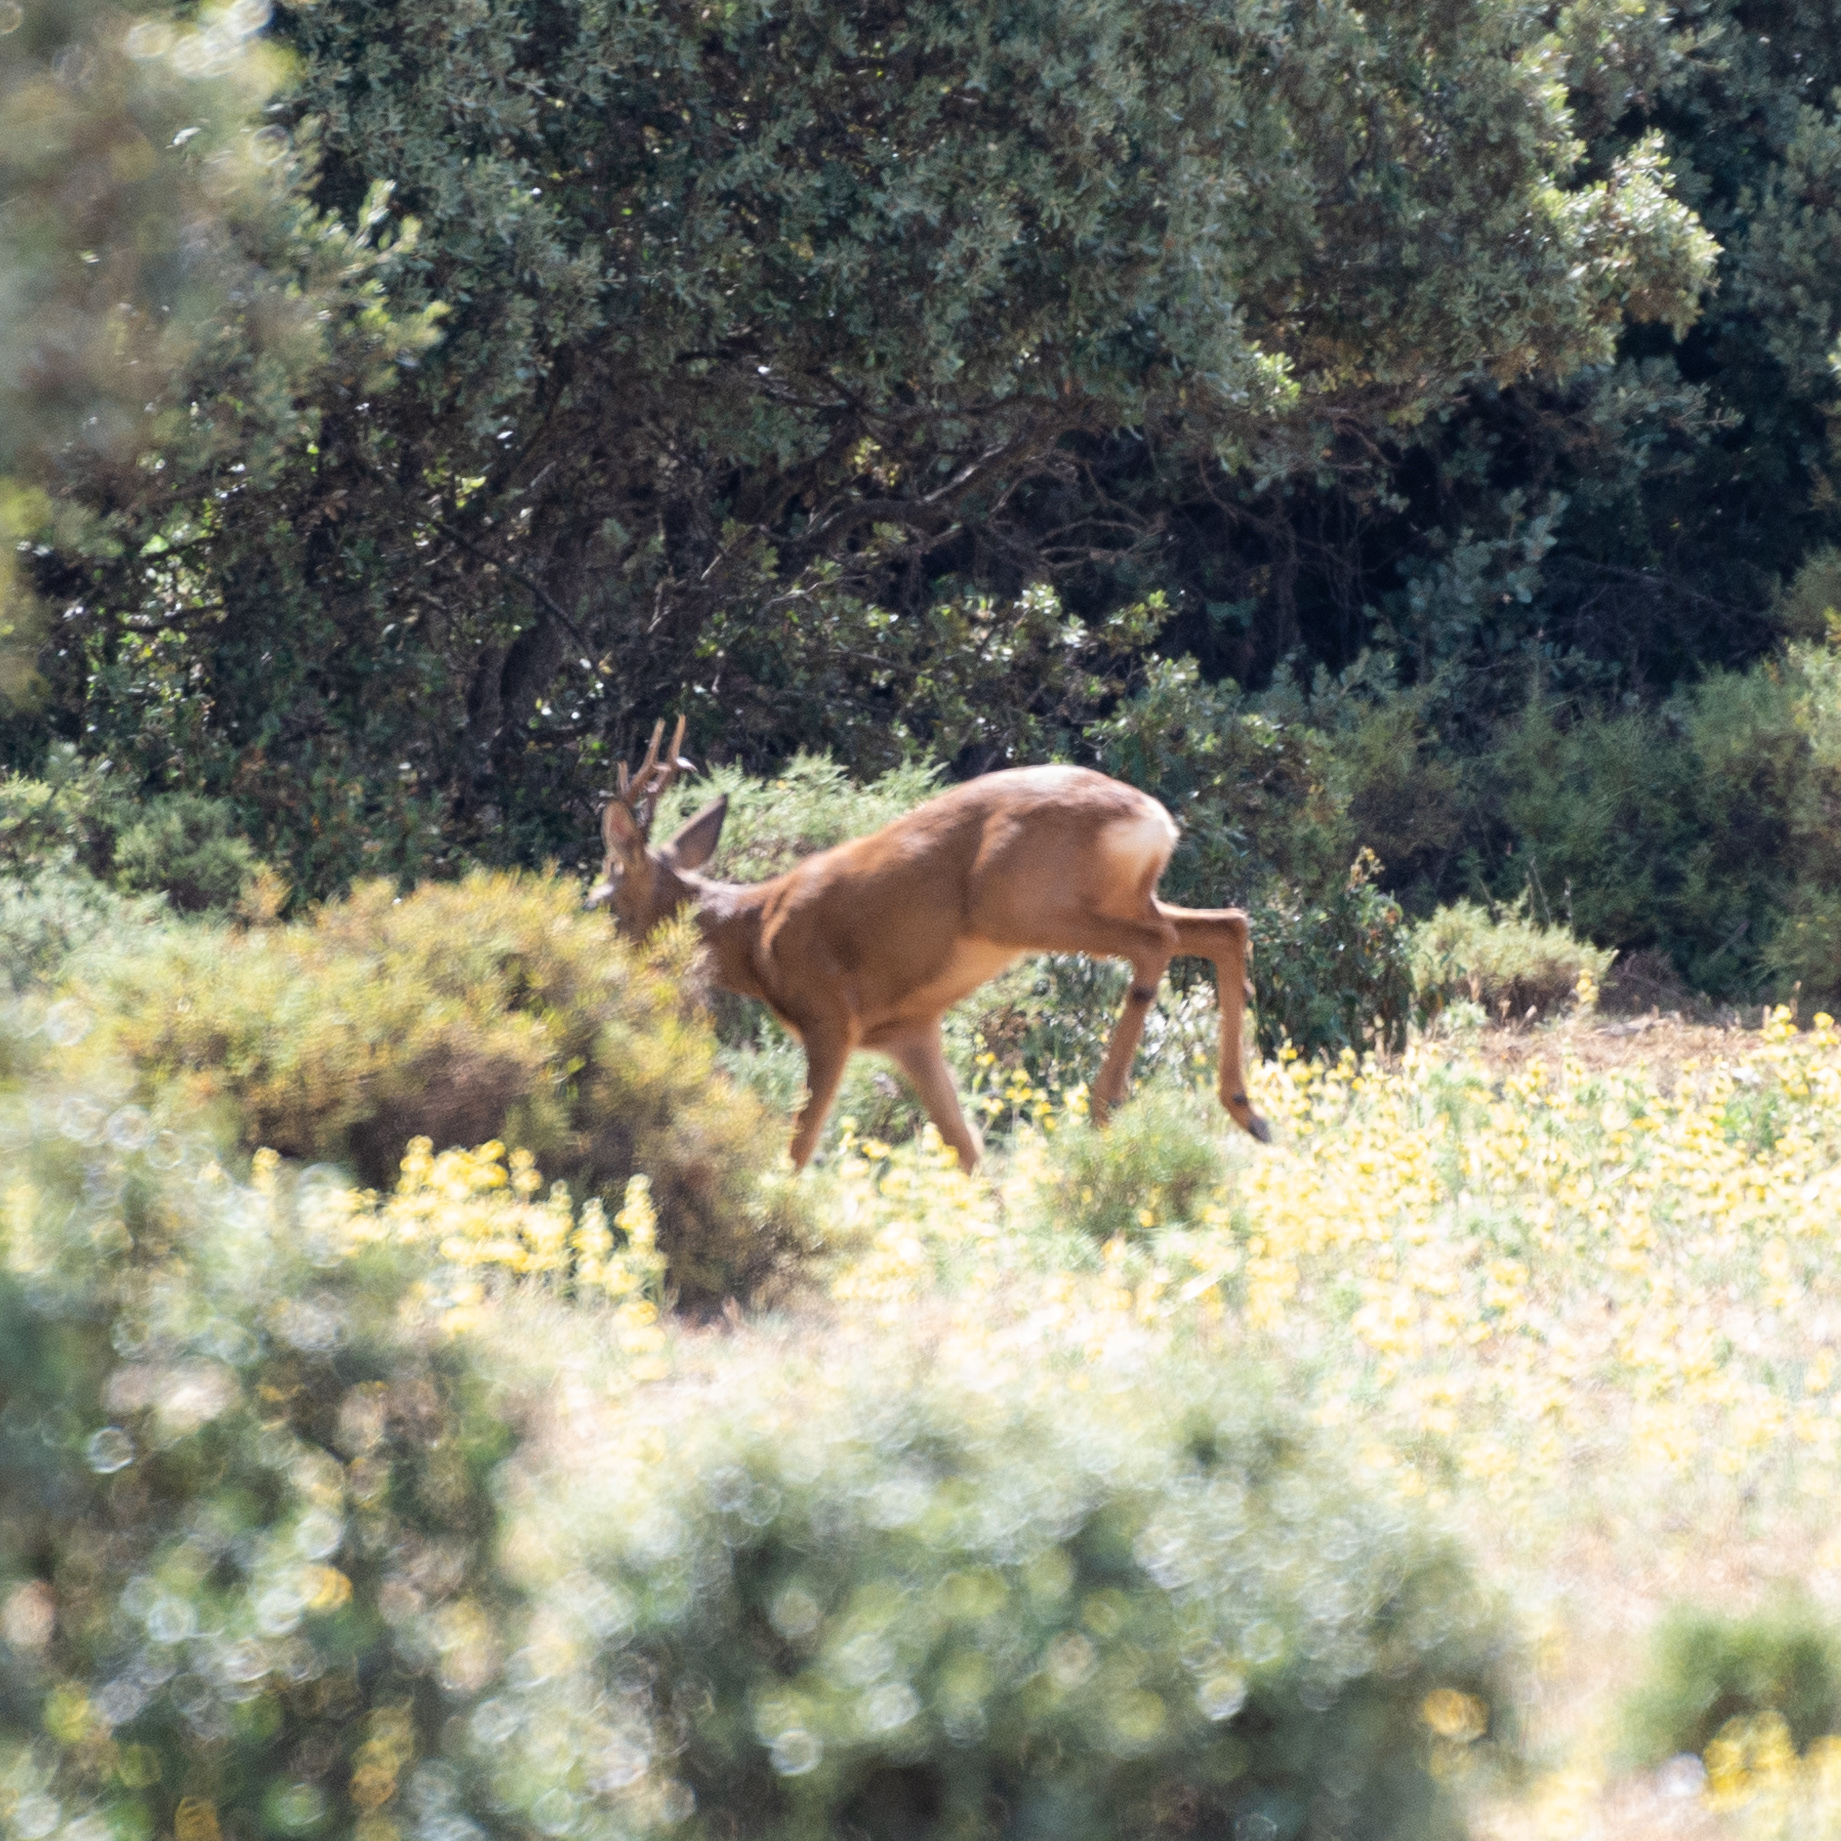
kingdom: Animalia
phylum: Chordata
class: Mammalia
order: Artiodactyla
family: Cervidae
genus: Capreolus
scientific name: Capreolus capreolus
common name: Western roe deer
